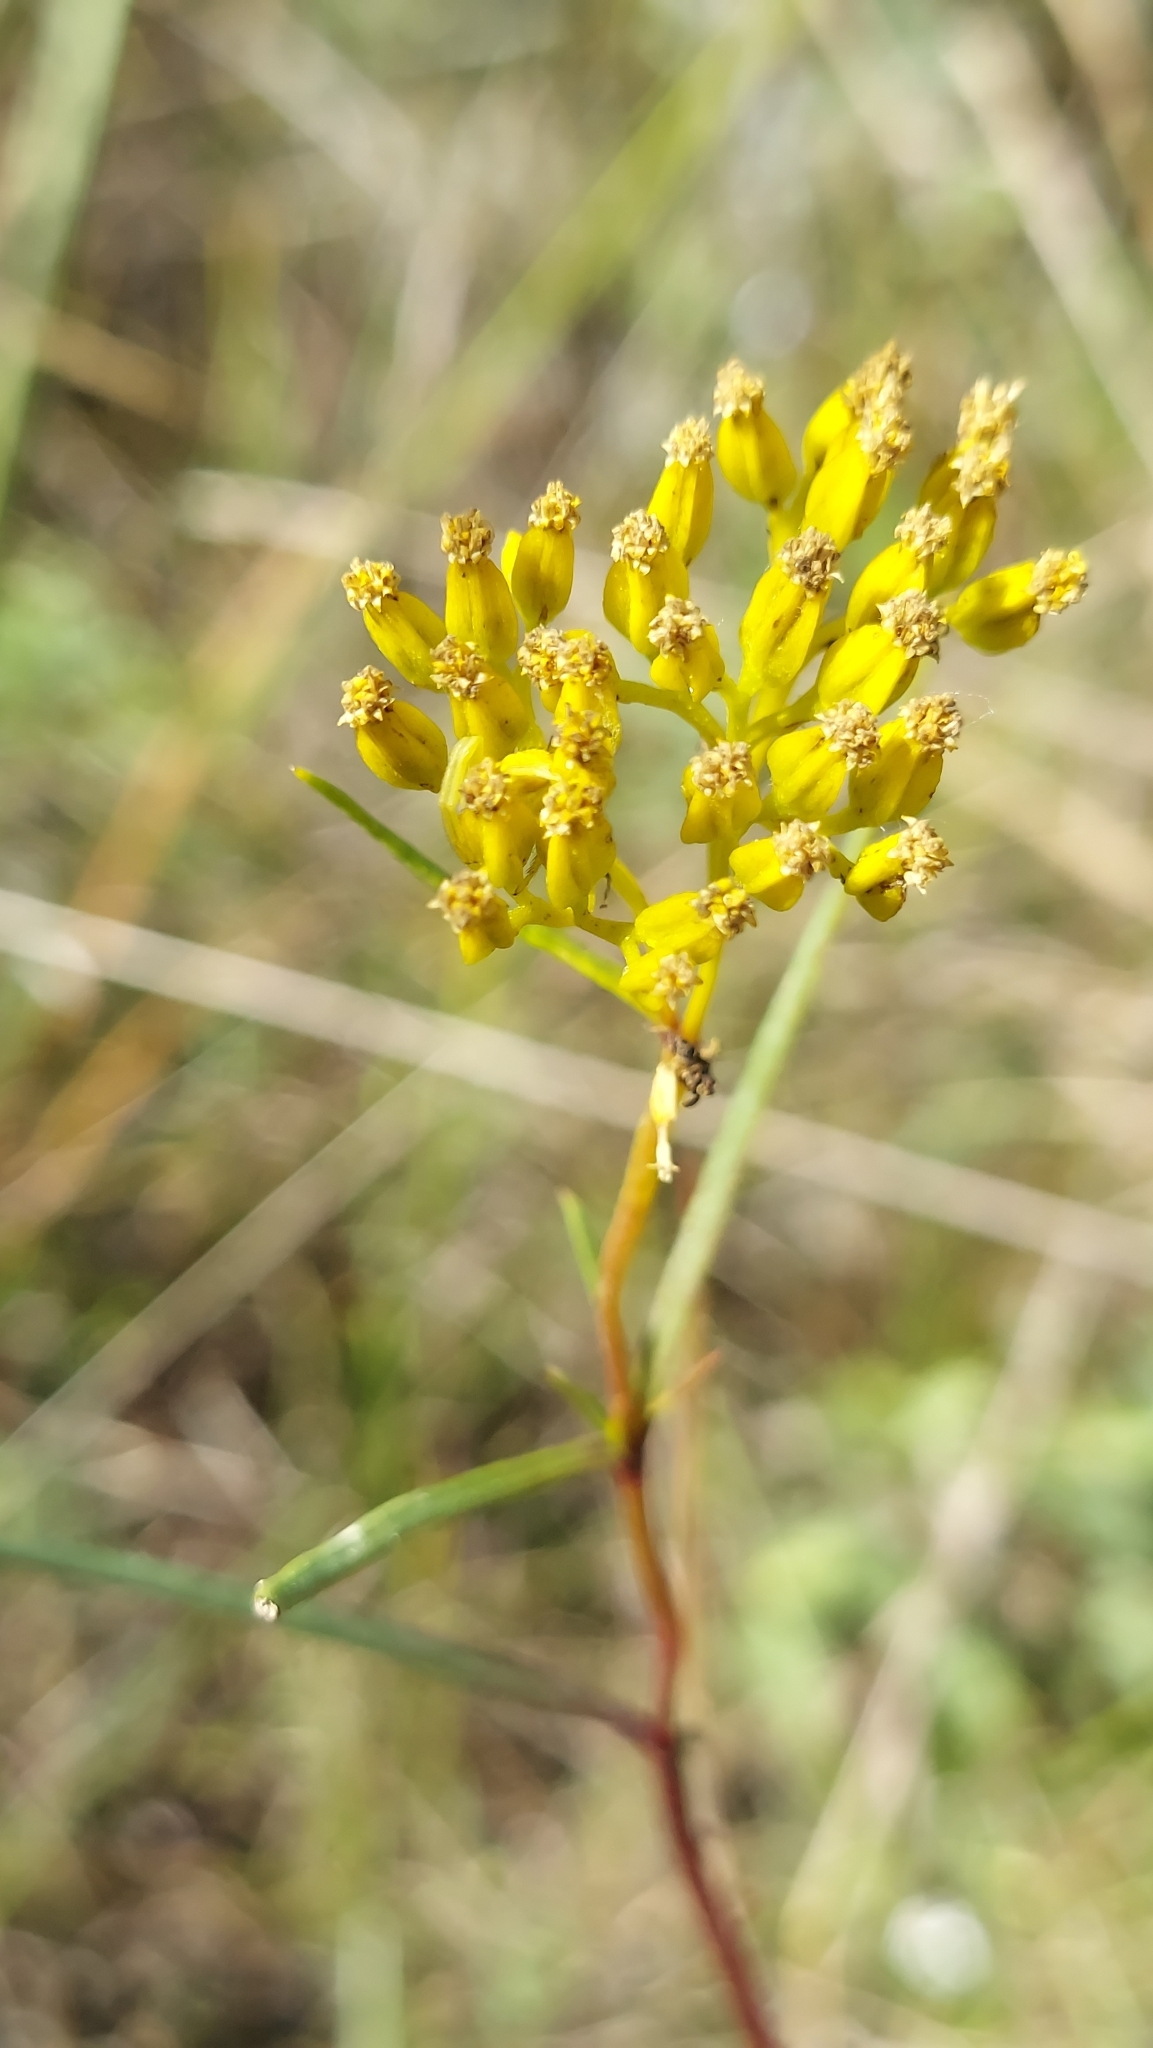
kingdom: Plantae
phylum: Tracheophyta
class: Magnoliopsida
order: Asterales
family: Asteraceae
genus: Flaveria
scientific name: Flaveria linearis
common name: Yellowtop
